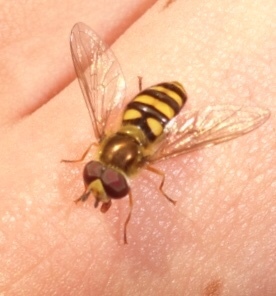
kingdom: Animalia
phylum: Arthropoda
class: Insecta
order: Diptera
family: Syrphidae
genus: Eupeodes
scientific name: Eupeodes
